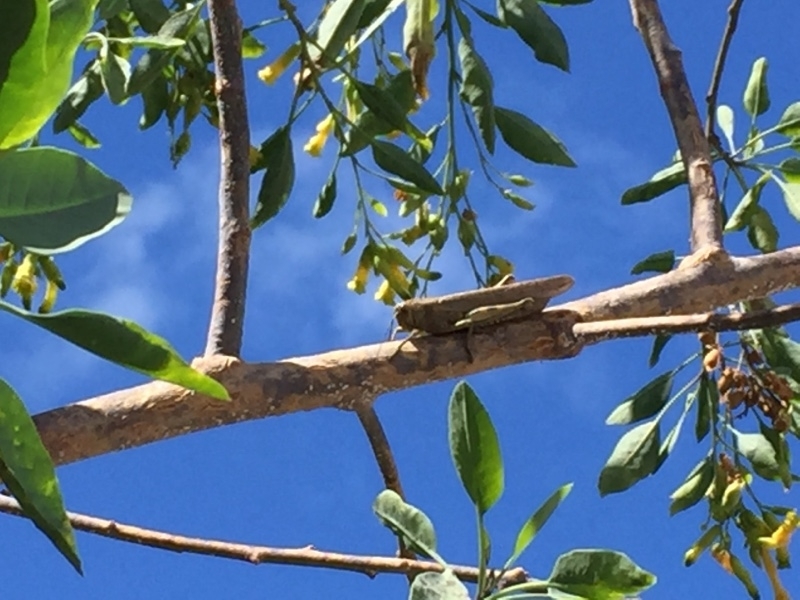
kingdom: Animalia
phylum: Arthropoda
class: Insecta
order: Orthoptera
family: Acrididae
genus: Anacridium
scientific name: Anacridium aegyptium
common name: Egyptian grasshopper
